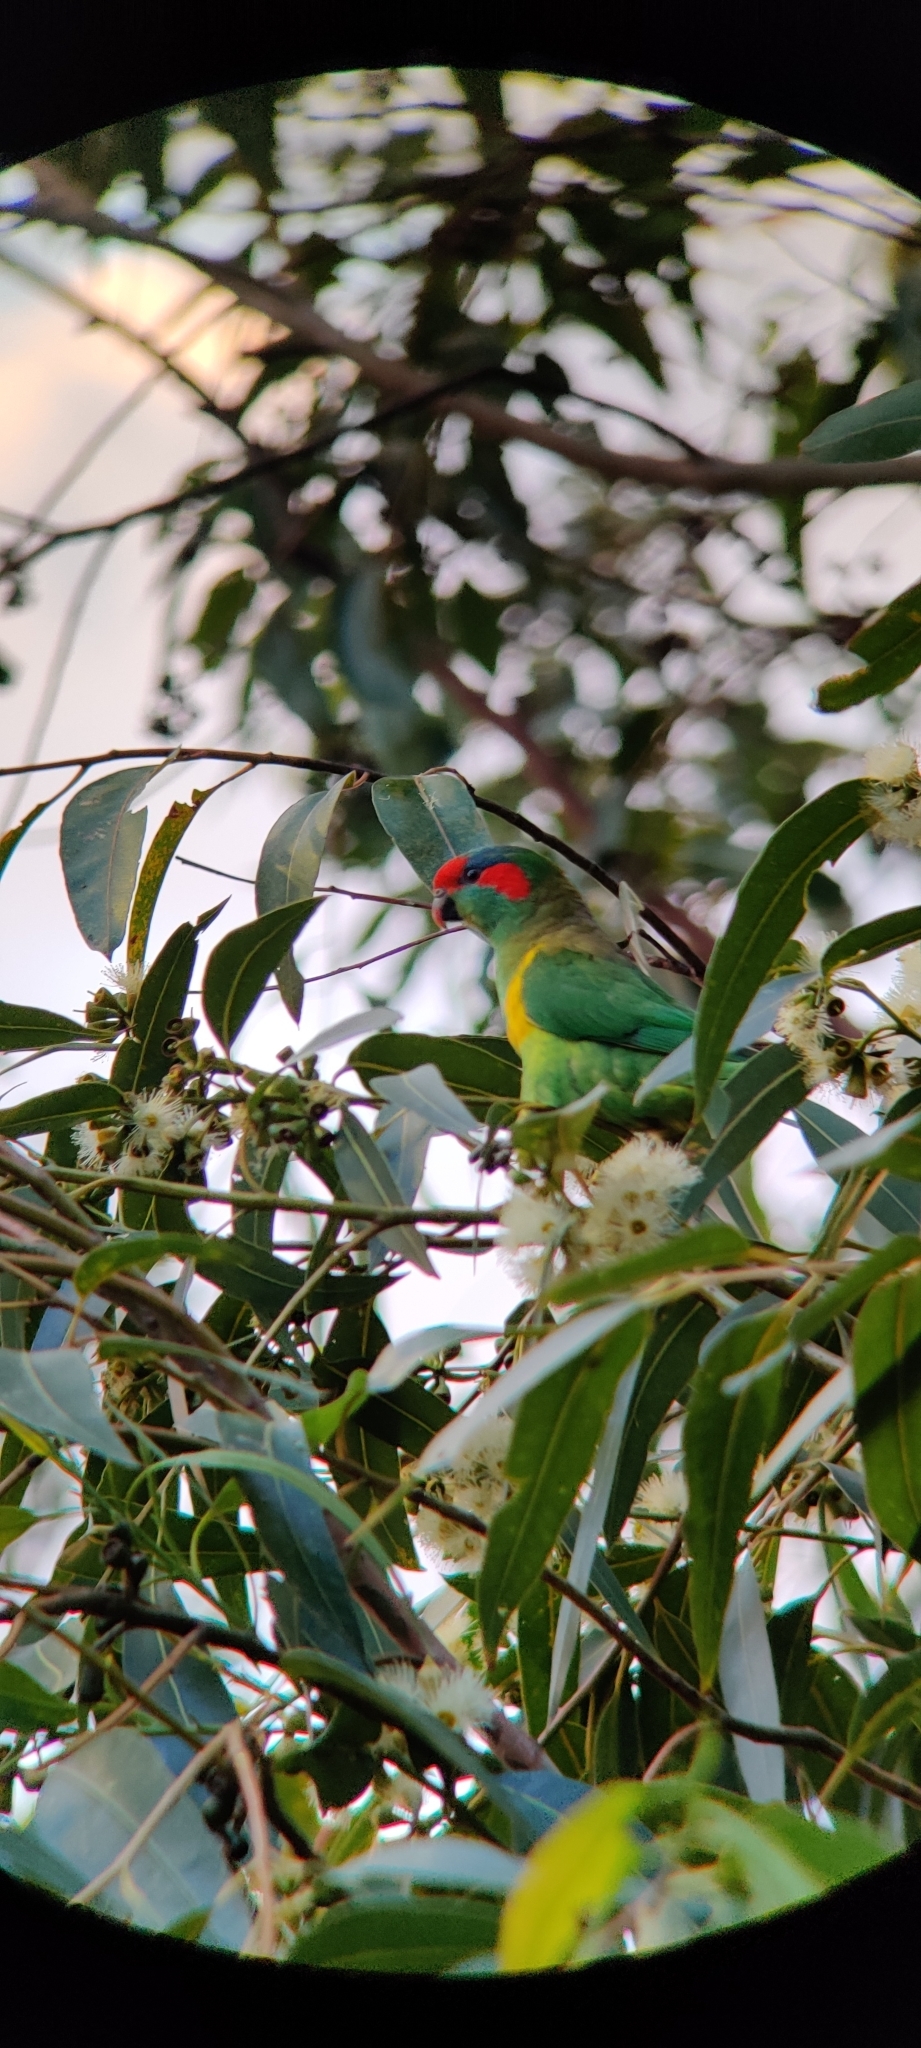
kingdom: Animalia
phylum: Chordata
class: Aves
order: Psittaciformes
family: Psittacidae
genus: Glossopsitta
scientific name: Glossopsitta concinna
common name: Musk lorikeet
